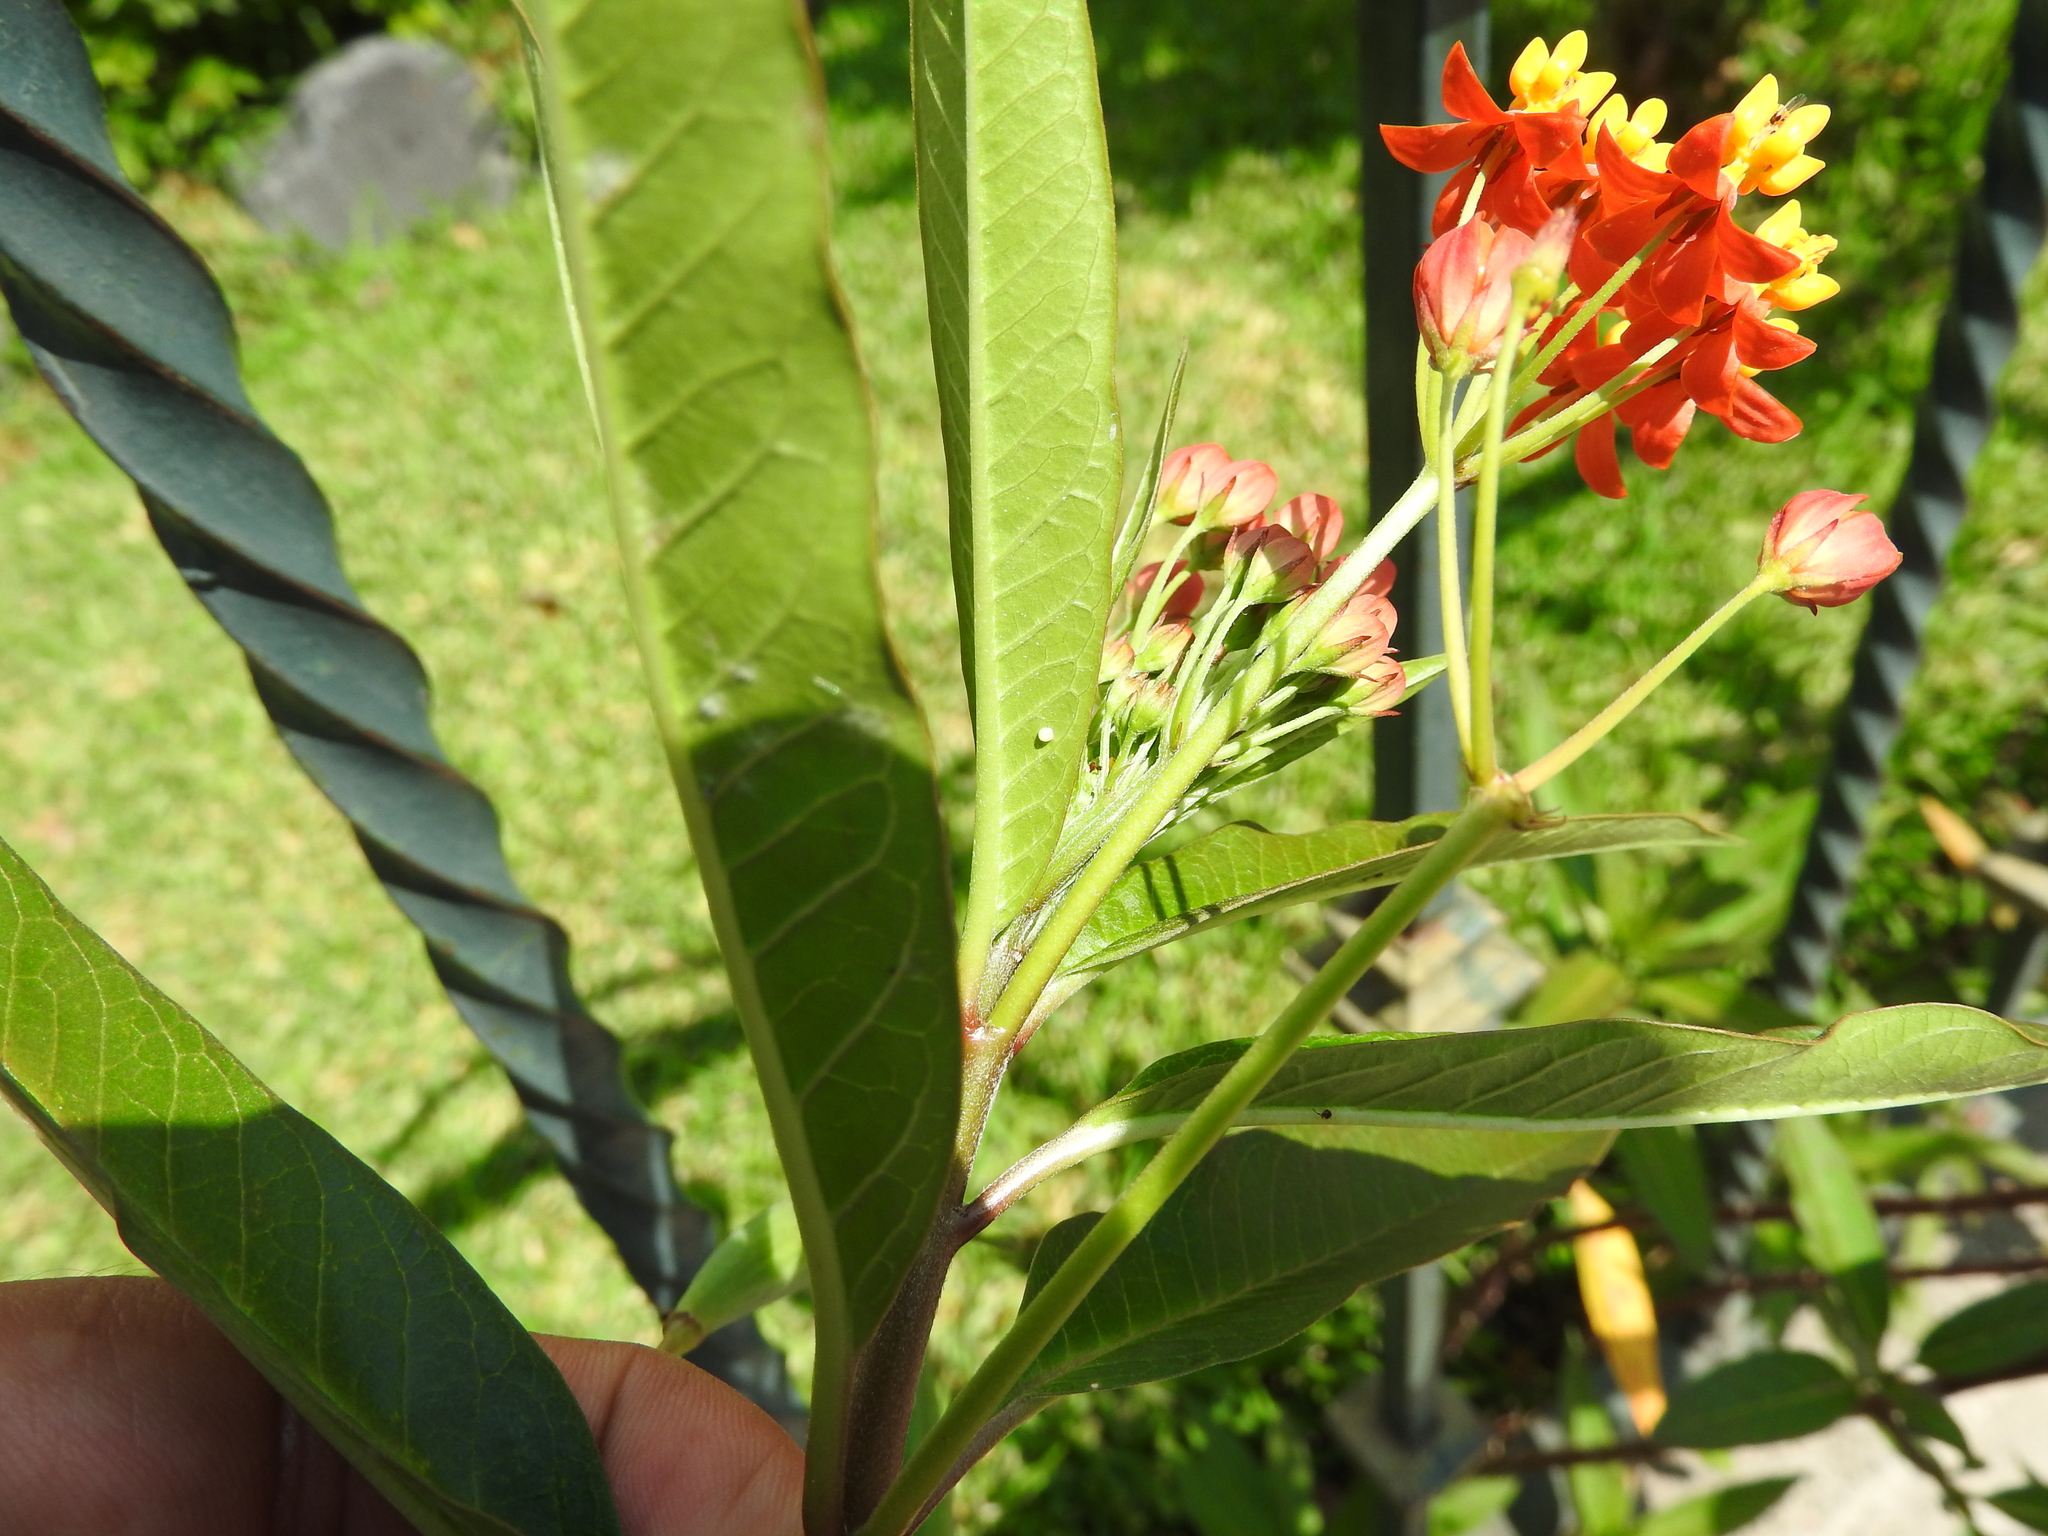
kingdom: Animalia
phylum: Arthropoda
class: Insecta
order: Lepidoptera
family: Nymphalidae
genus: Danaus
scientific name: Danaus plexippus
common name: Monarch
